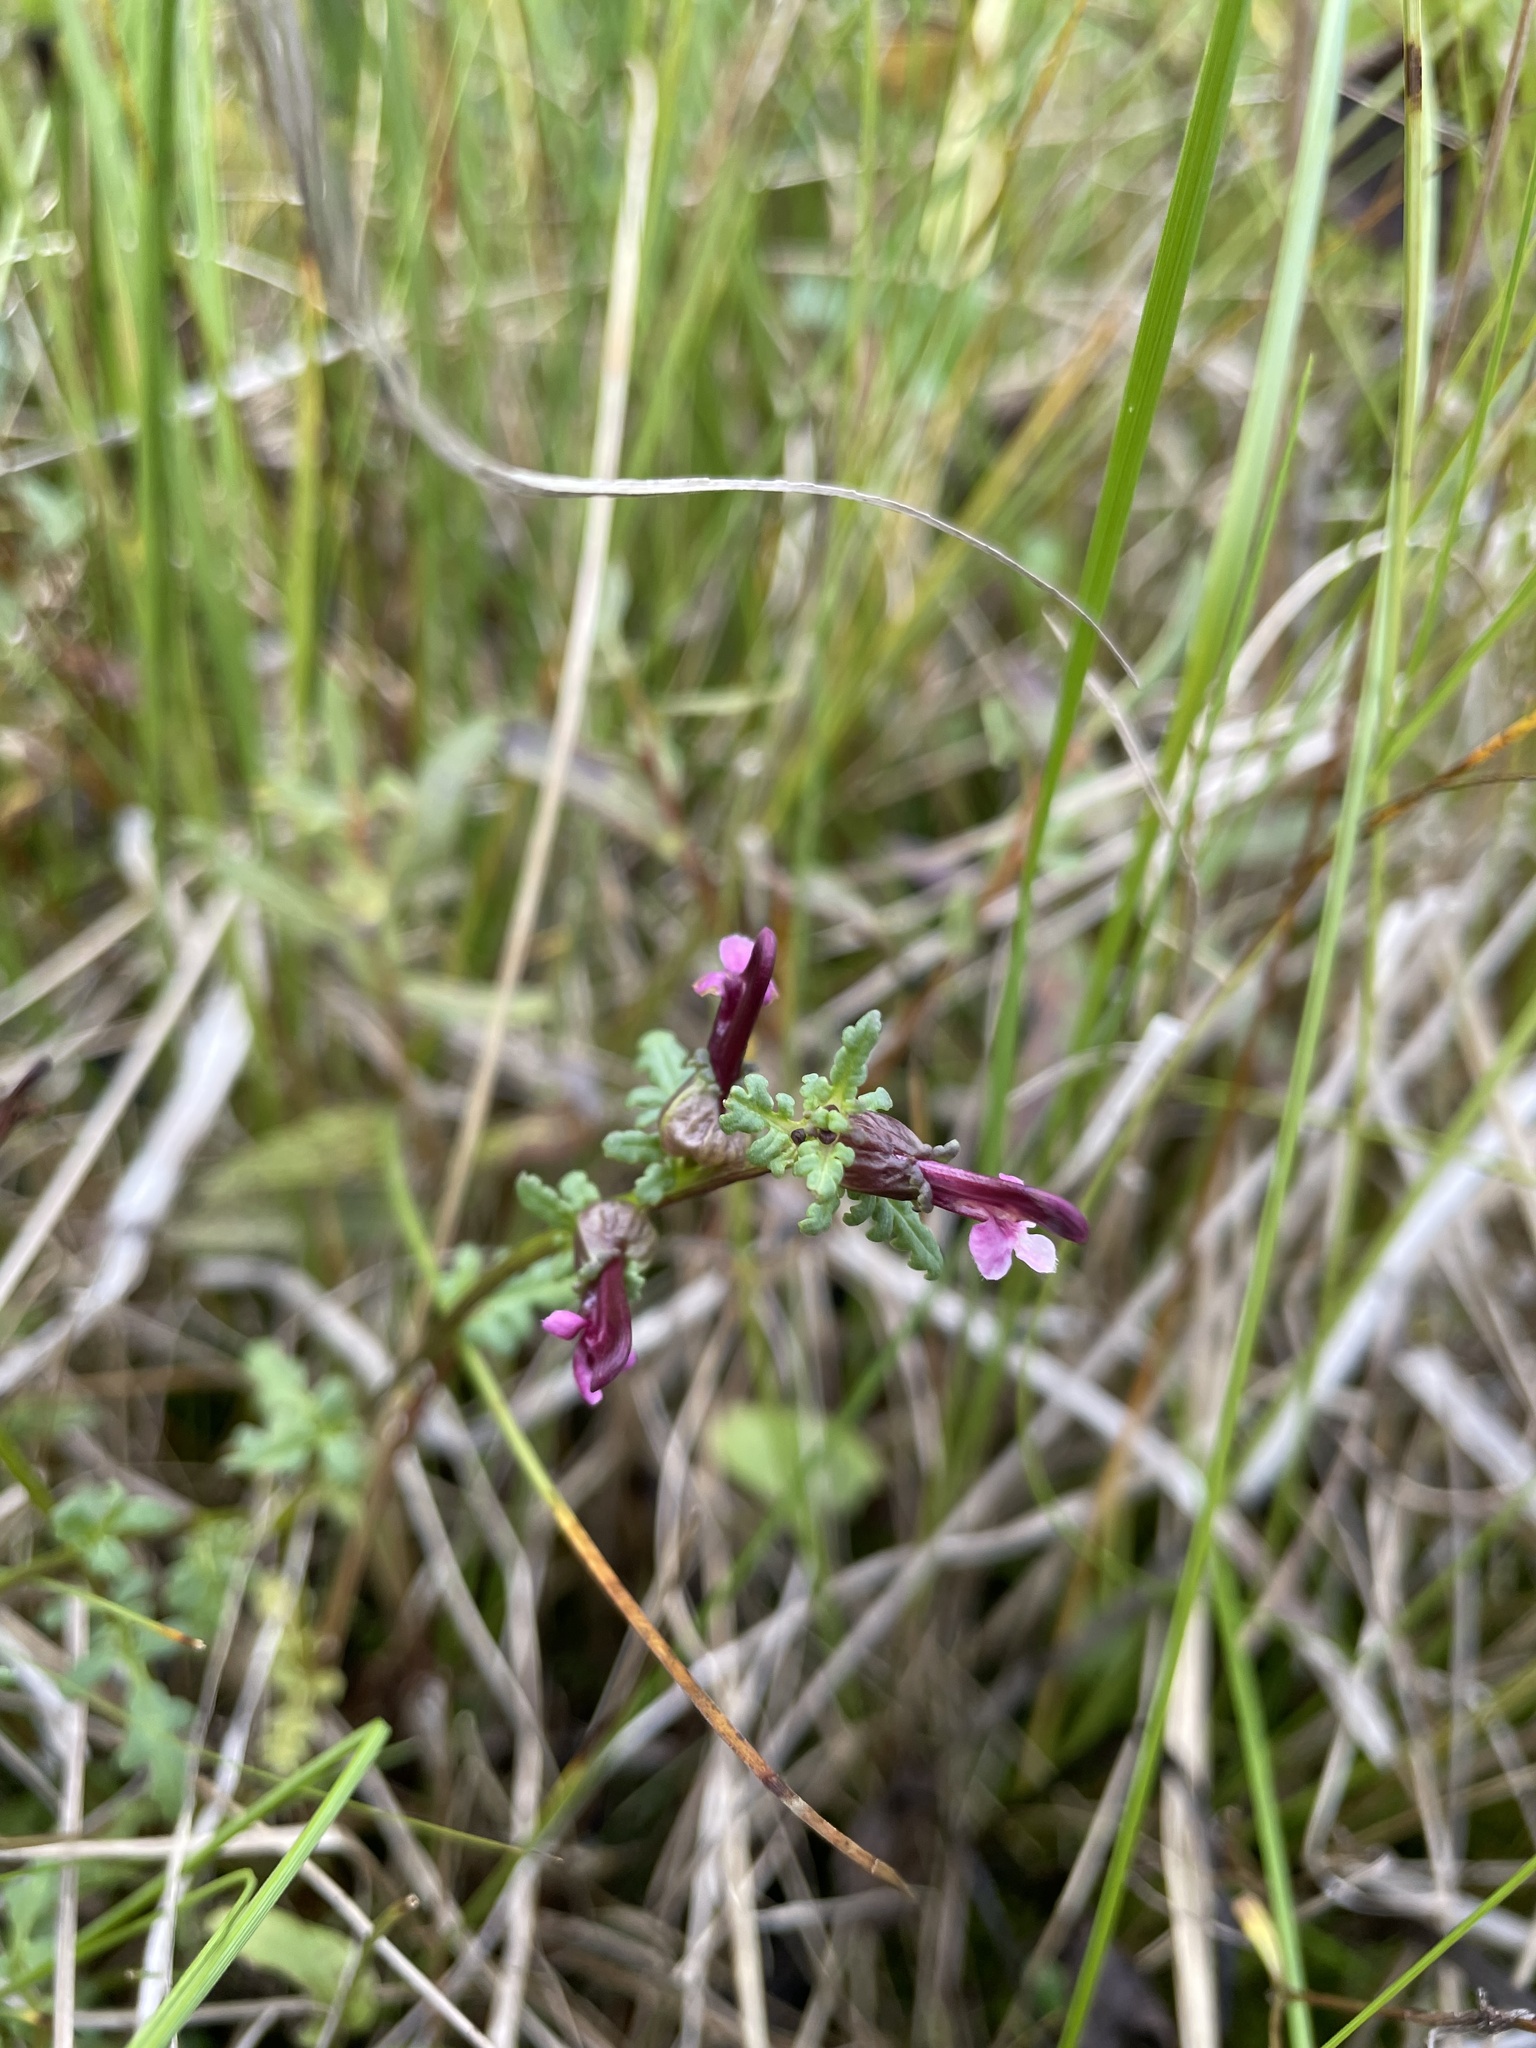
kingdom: Plantae
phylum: Tracheophyta
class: Magnoliopsida
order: Lamiales
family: Orobanchaceae
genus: Pedicularis
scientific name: Pedicularis parviflora
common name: Muskeg lousewort
